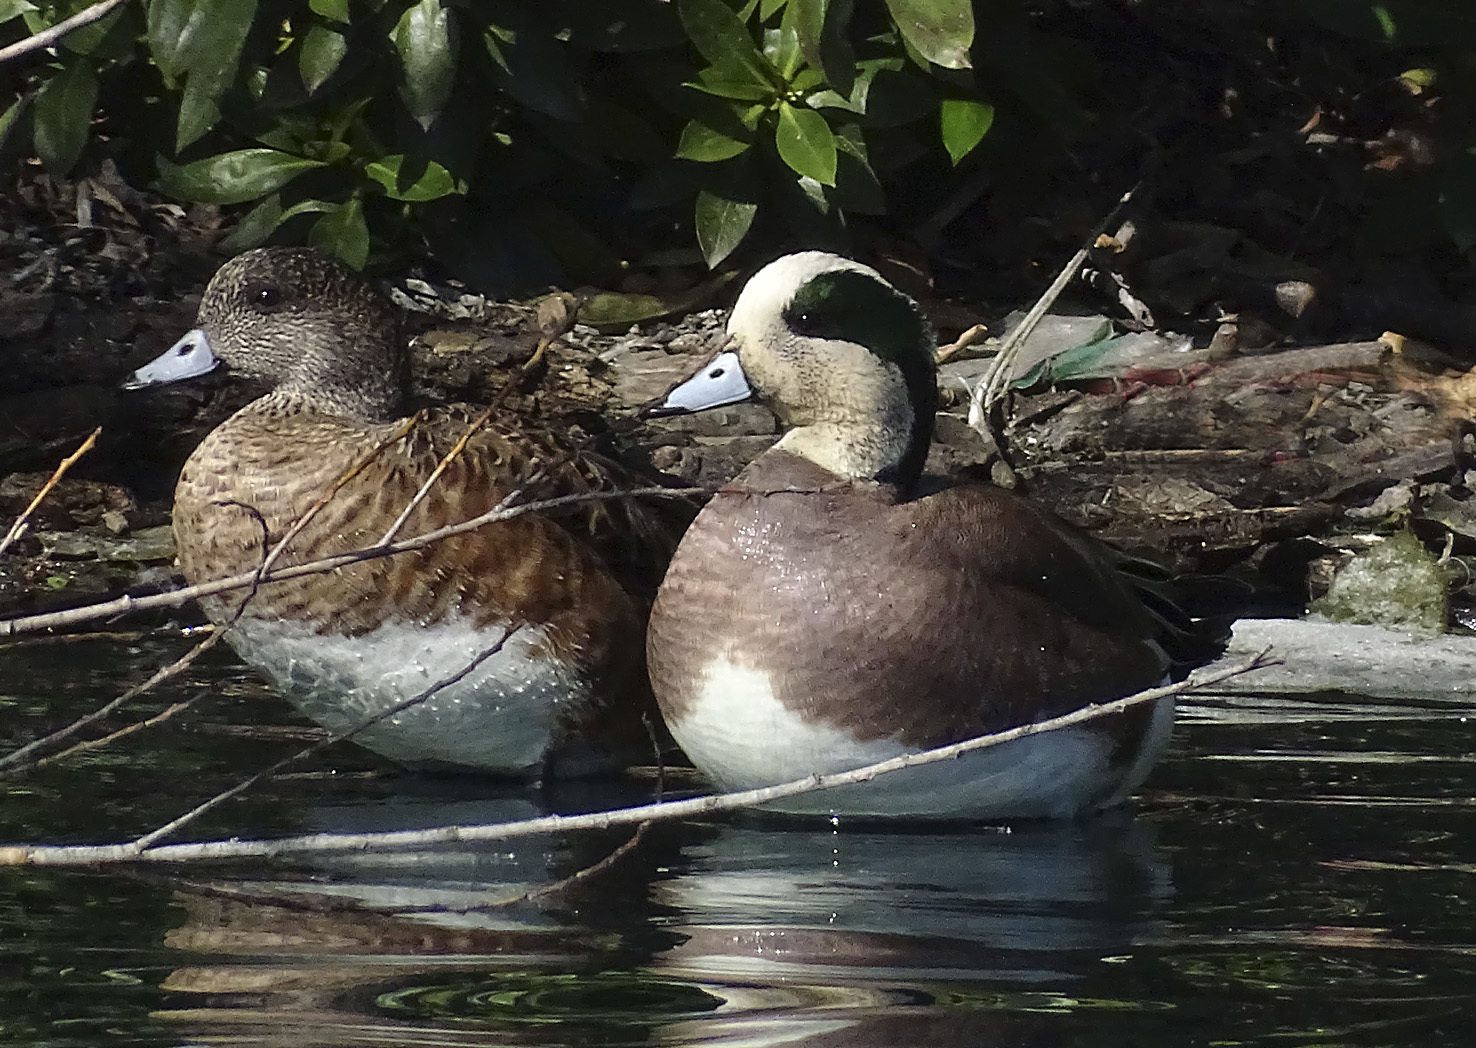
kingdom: Animalia
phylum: Chordata
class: Aves
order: Anseriformes
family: Anatidae
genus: Mareca
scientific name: Mareca americana
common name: American wigeon
